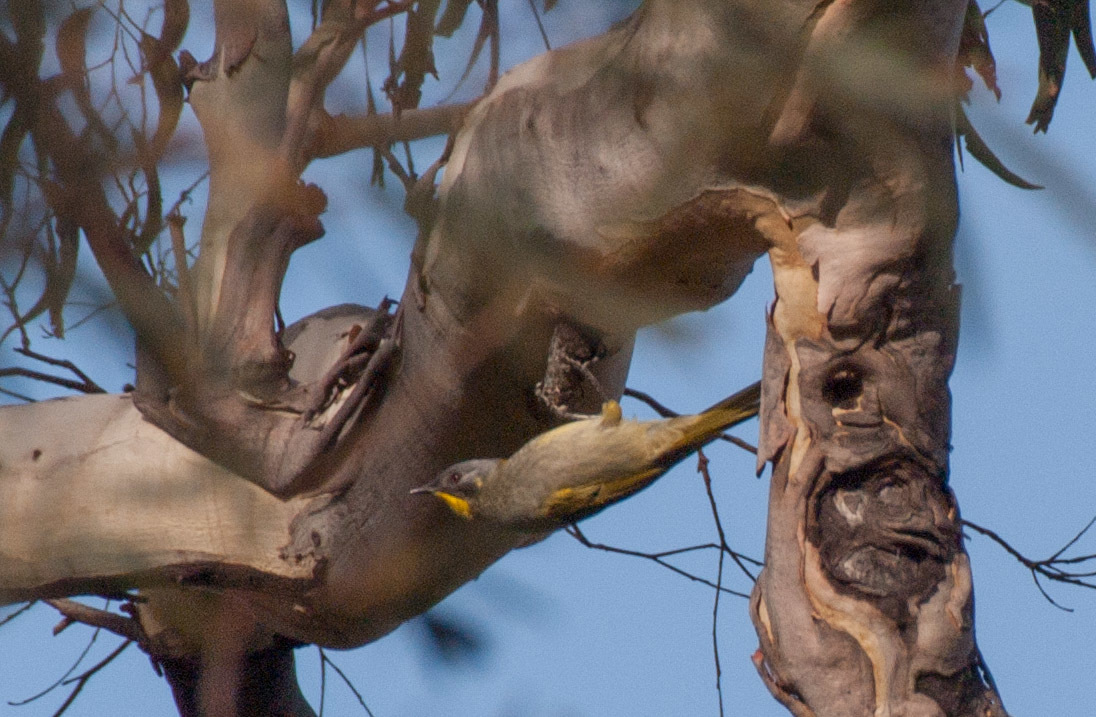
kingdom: Animalia
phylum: Chordata
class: Aves
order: Passeriformes
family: Meliphagidae
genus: Nesoptilotis
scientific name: Nesoptilotis flavicollis
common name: Yellow-throated honeyeater
